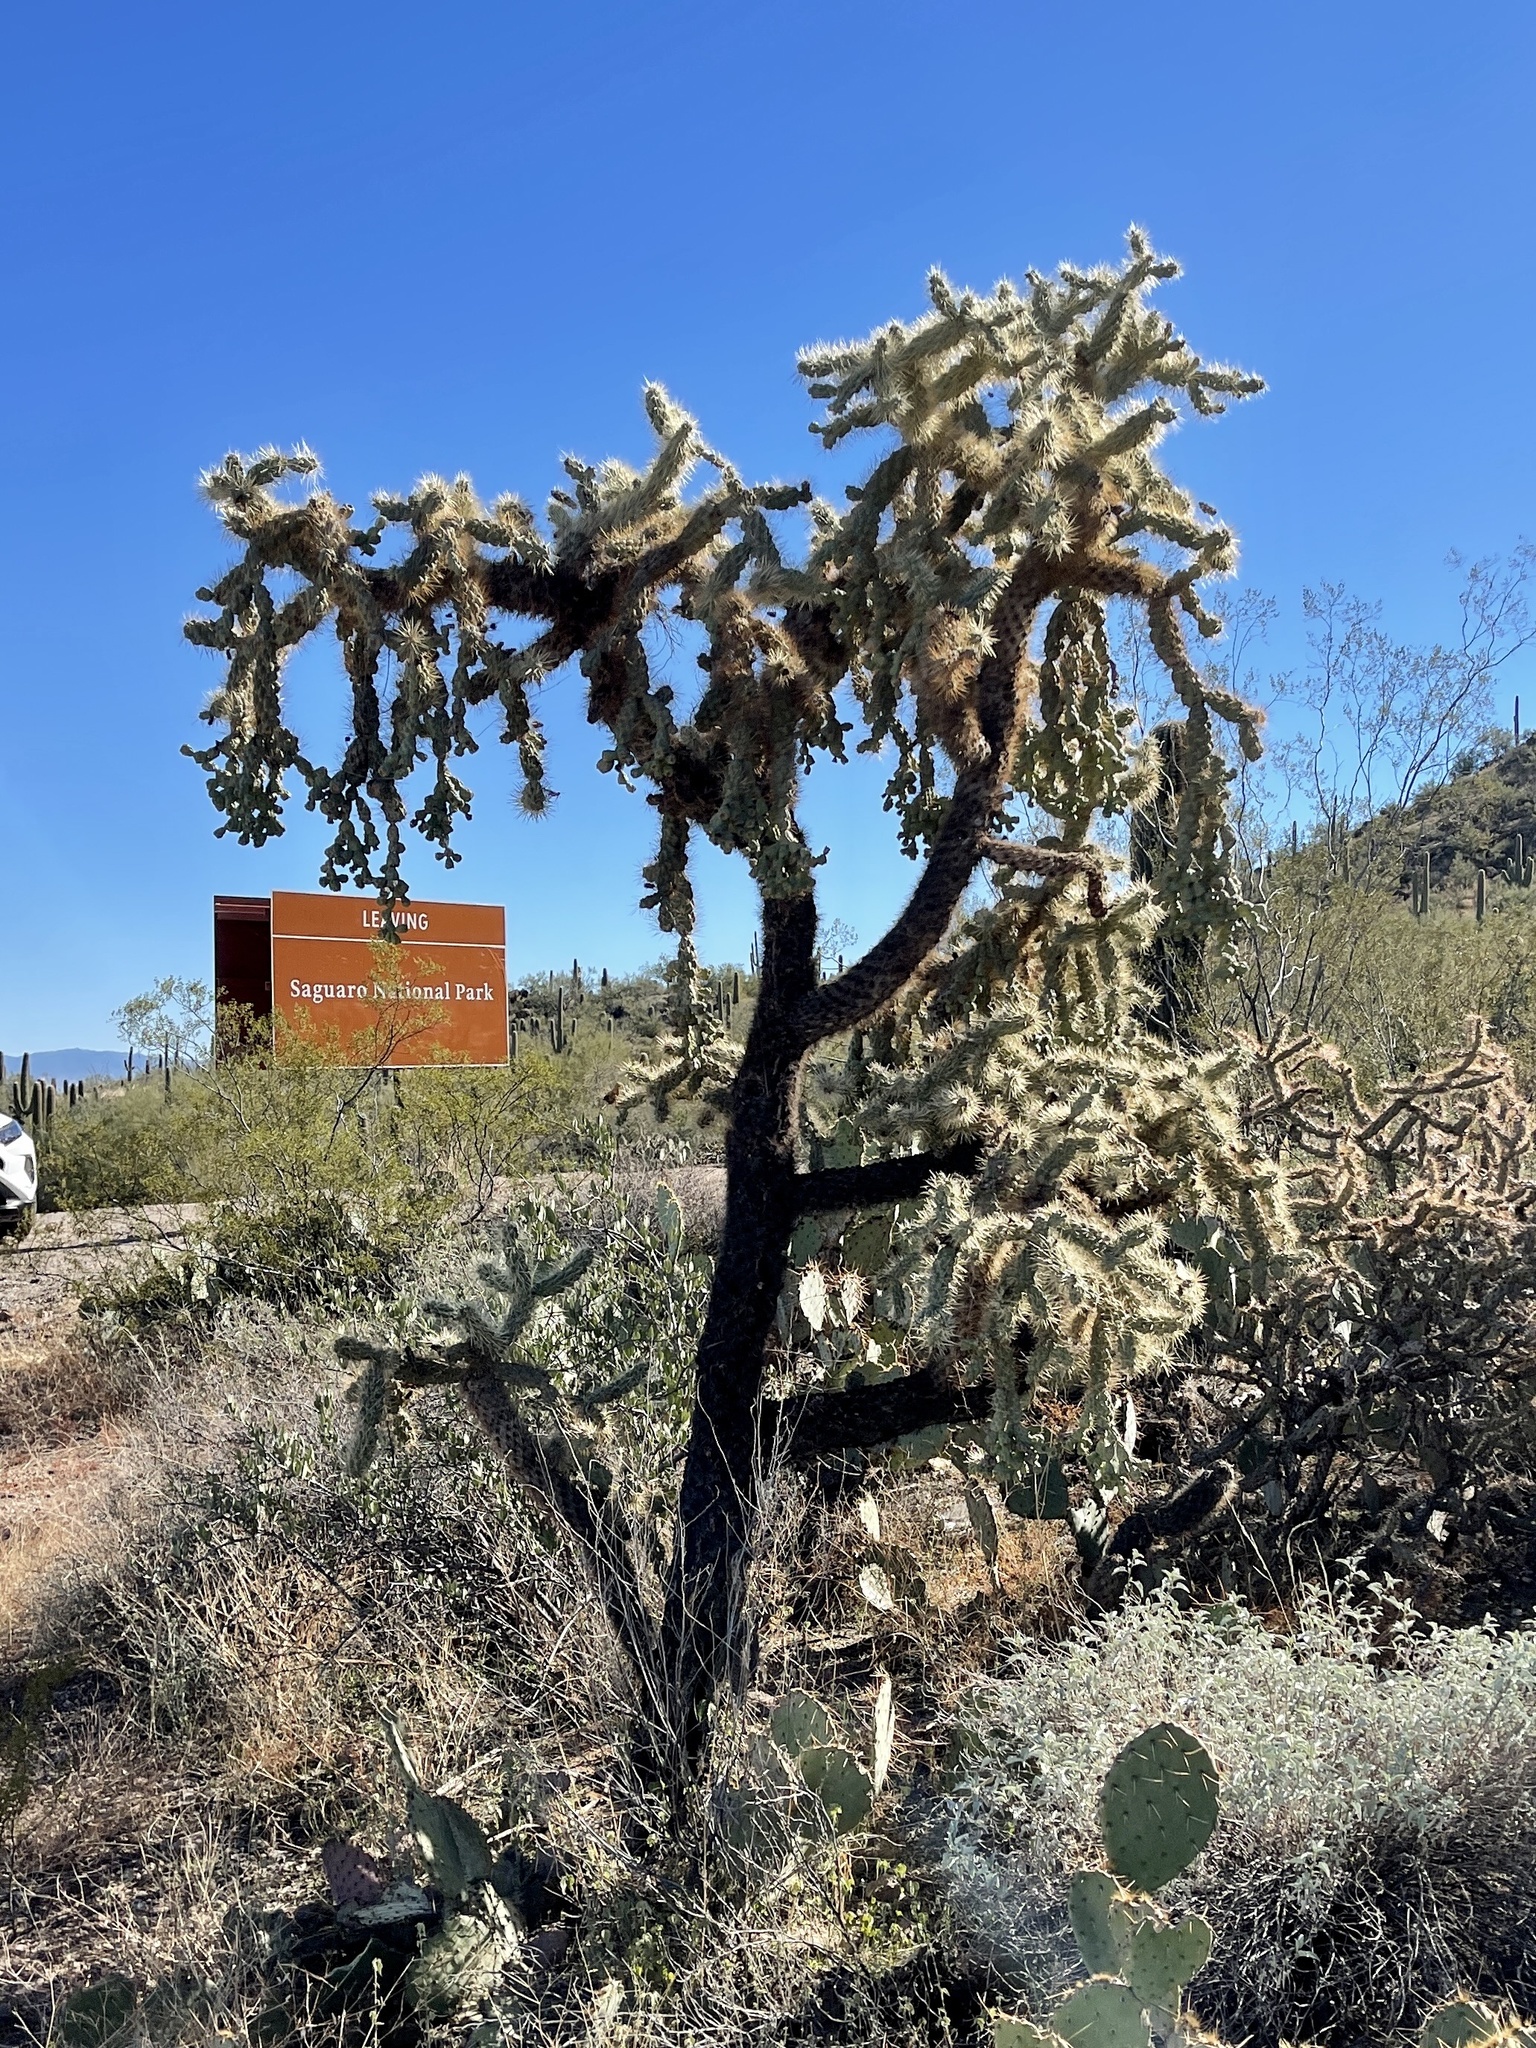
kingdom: Plantae
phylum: Tracheophyta
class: Magnoliopsida
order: Caryophyllales
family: Cactaceae
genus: Cylindropuntia
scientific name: Cylindropuntia fulgida
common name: Jumping cholla
